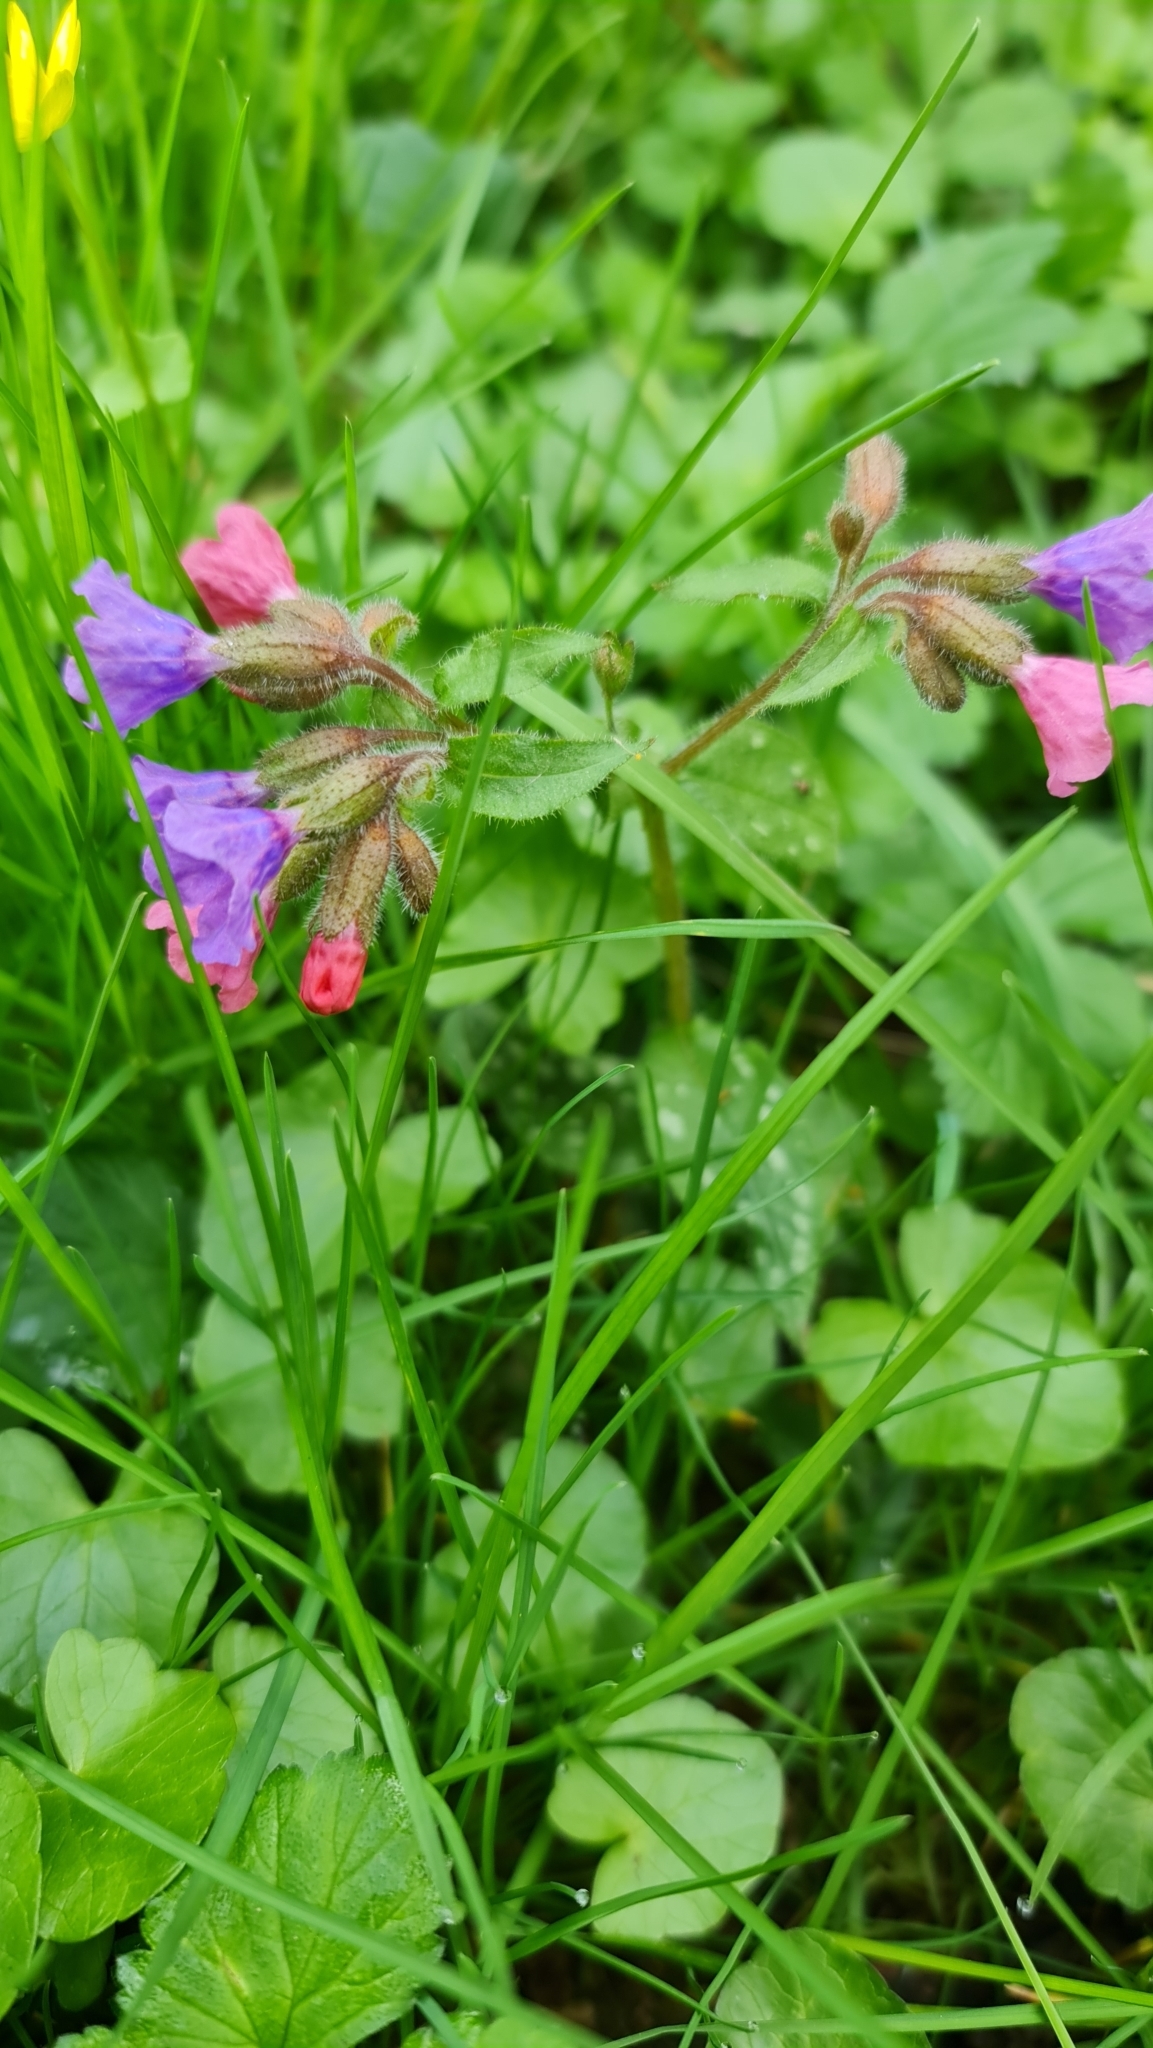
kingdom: Plantae
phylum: Tracheophyta
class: Magnoliopsida
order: Boraginales
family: Boraginaceae
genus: Pulmonaria
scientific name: Pulmonaria officinalis
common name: Lungwort
